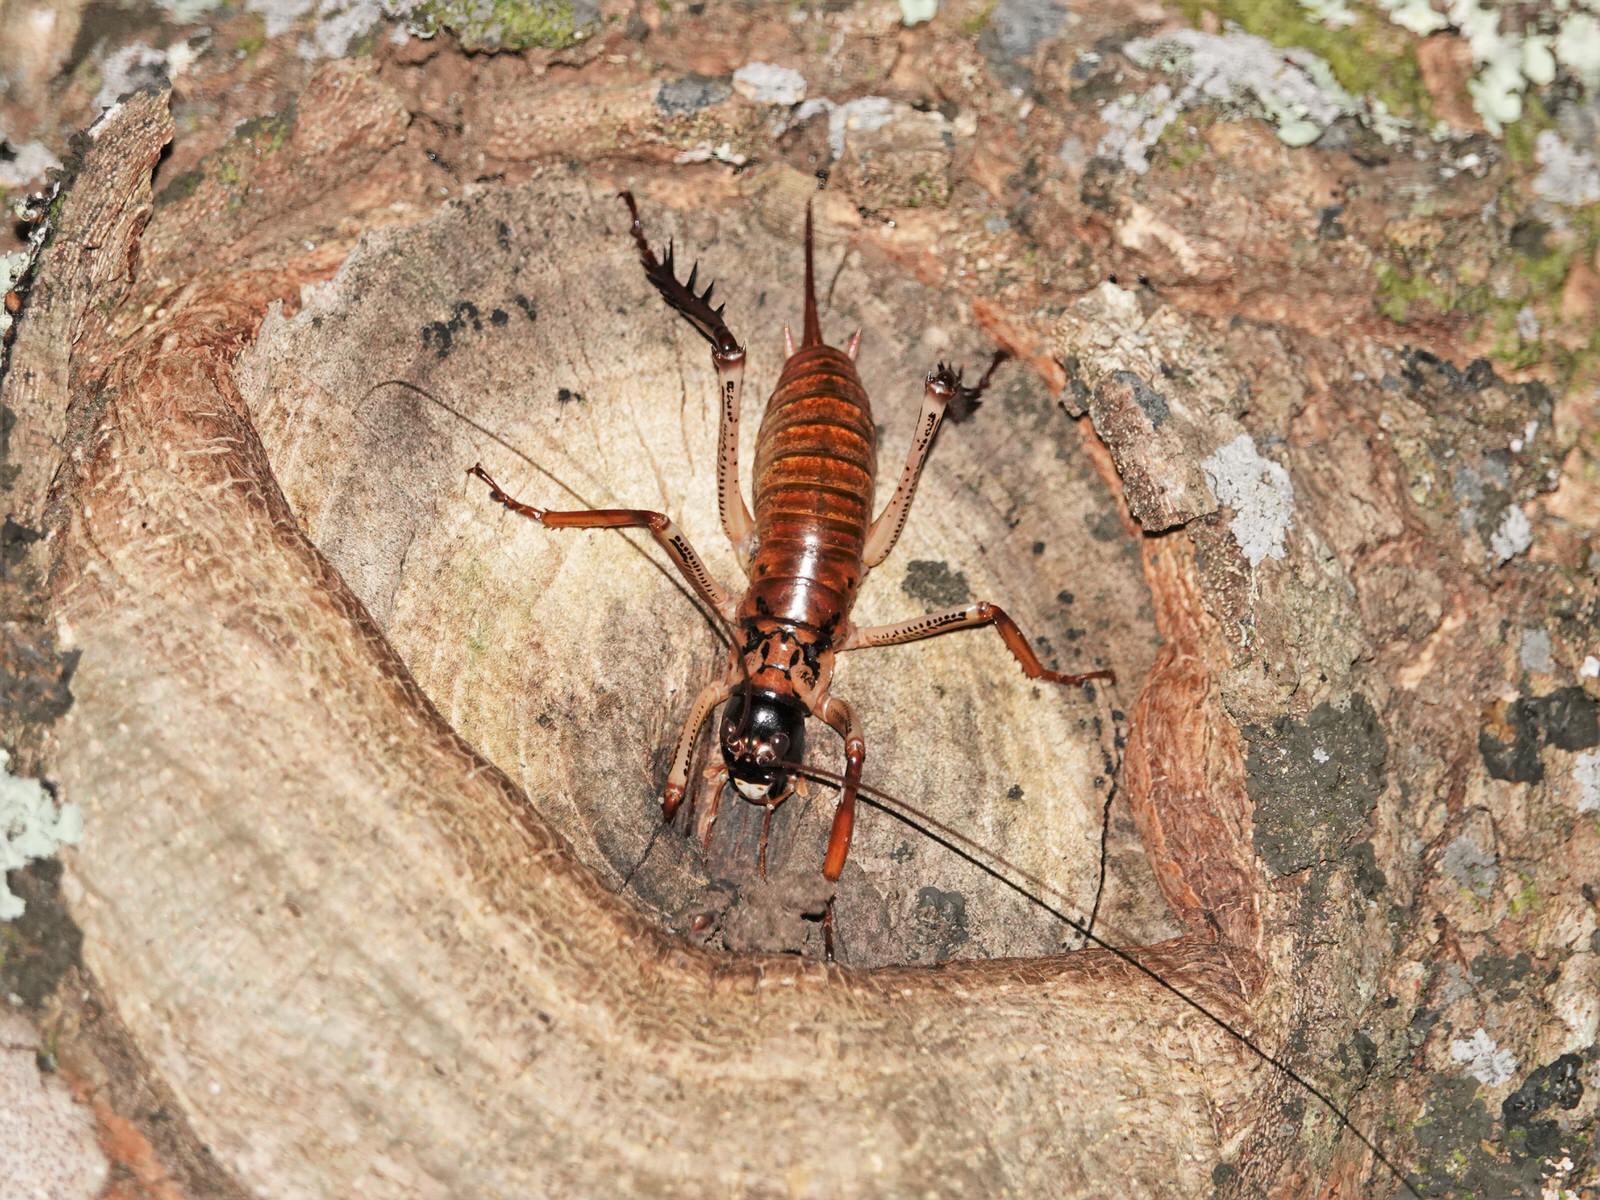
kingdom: Animalia
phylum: Arthropoda
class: Insecta
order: Orthoptera
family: Anostostomatidae
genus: Hemideina
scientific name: Hemideina thoracica
